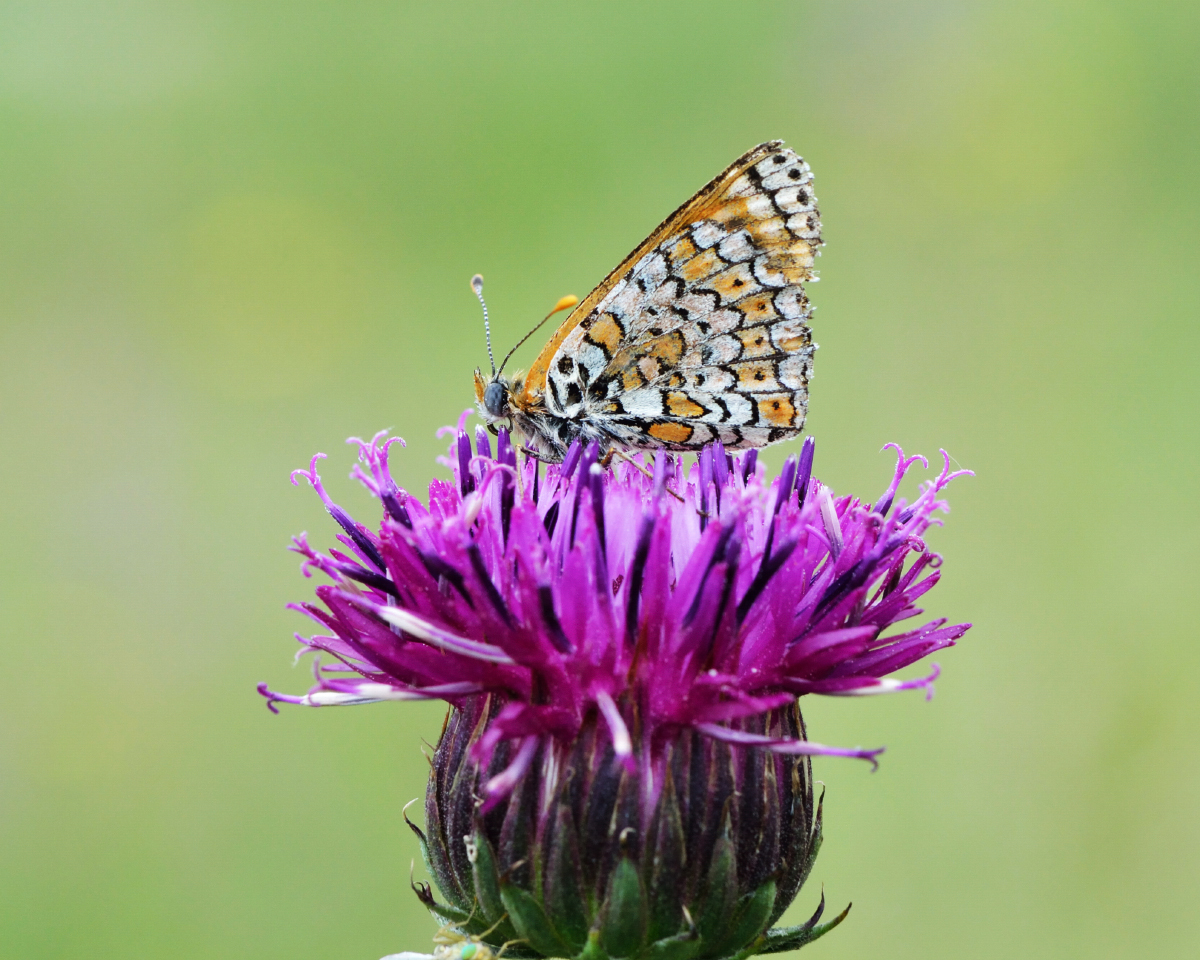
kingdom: Animalia
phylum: Arthropoda
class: Insecta
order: Lepidoptera
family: Nymphalidae
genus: Melitaea
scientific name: Melitaea cinxia
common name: Glanville fritillary
